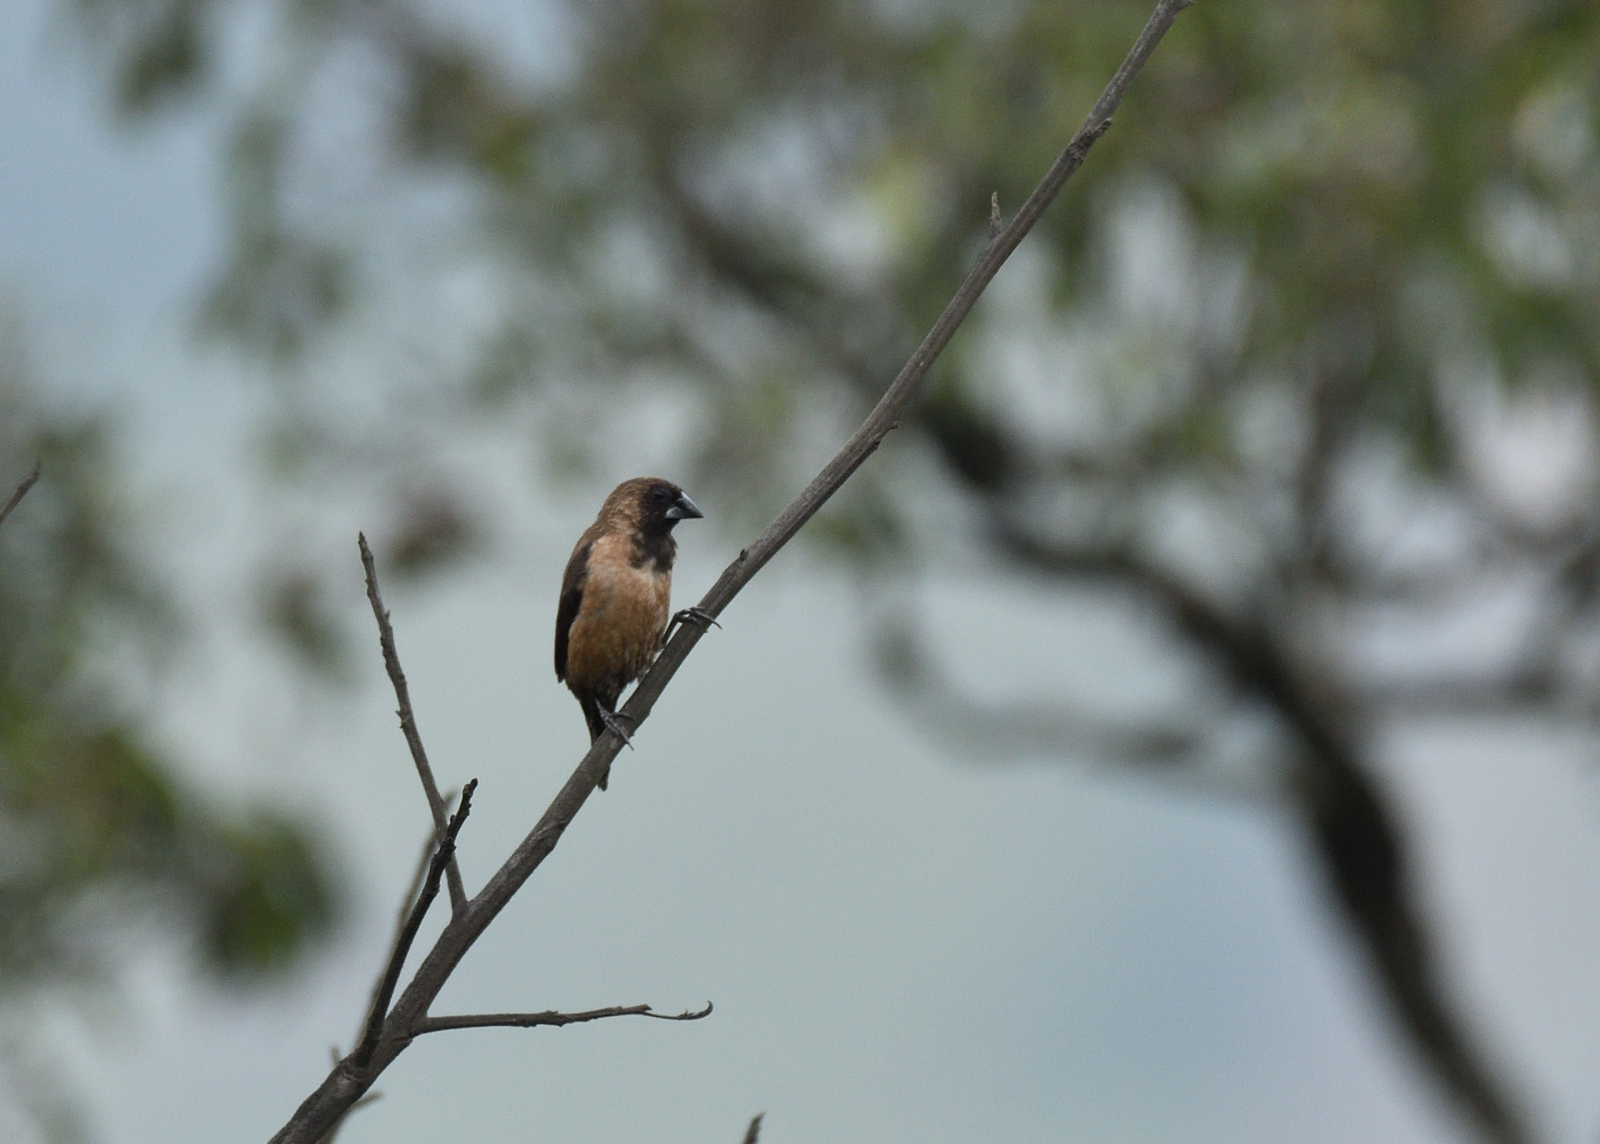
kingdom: Animalia
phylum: Chordata
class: Aves
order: Passeriformes
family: Estrildidae
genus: Lonchura
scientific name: Lonchura kelaarti
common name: Black-throated munia
